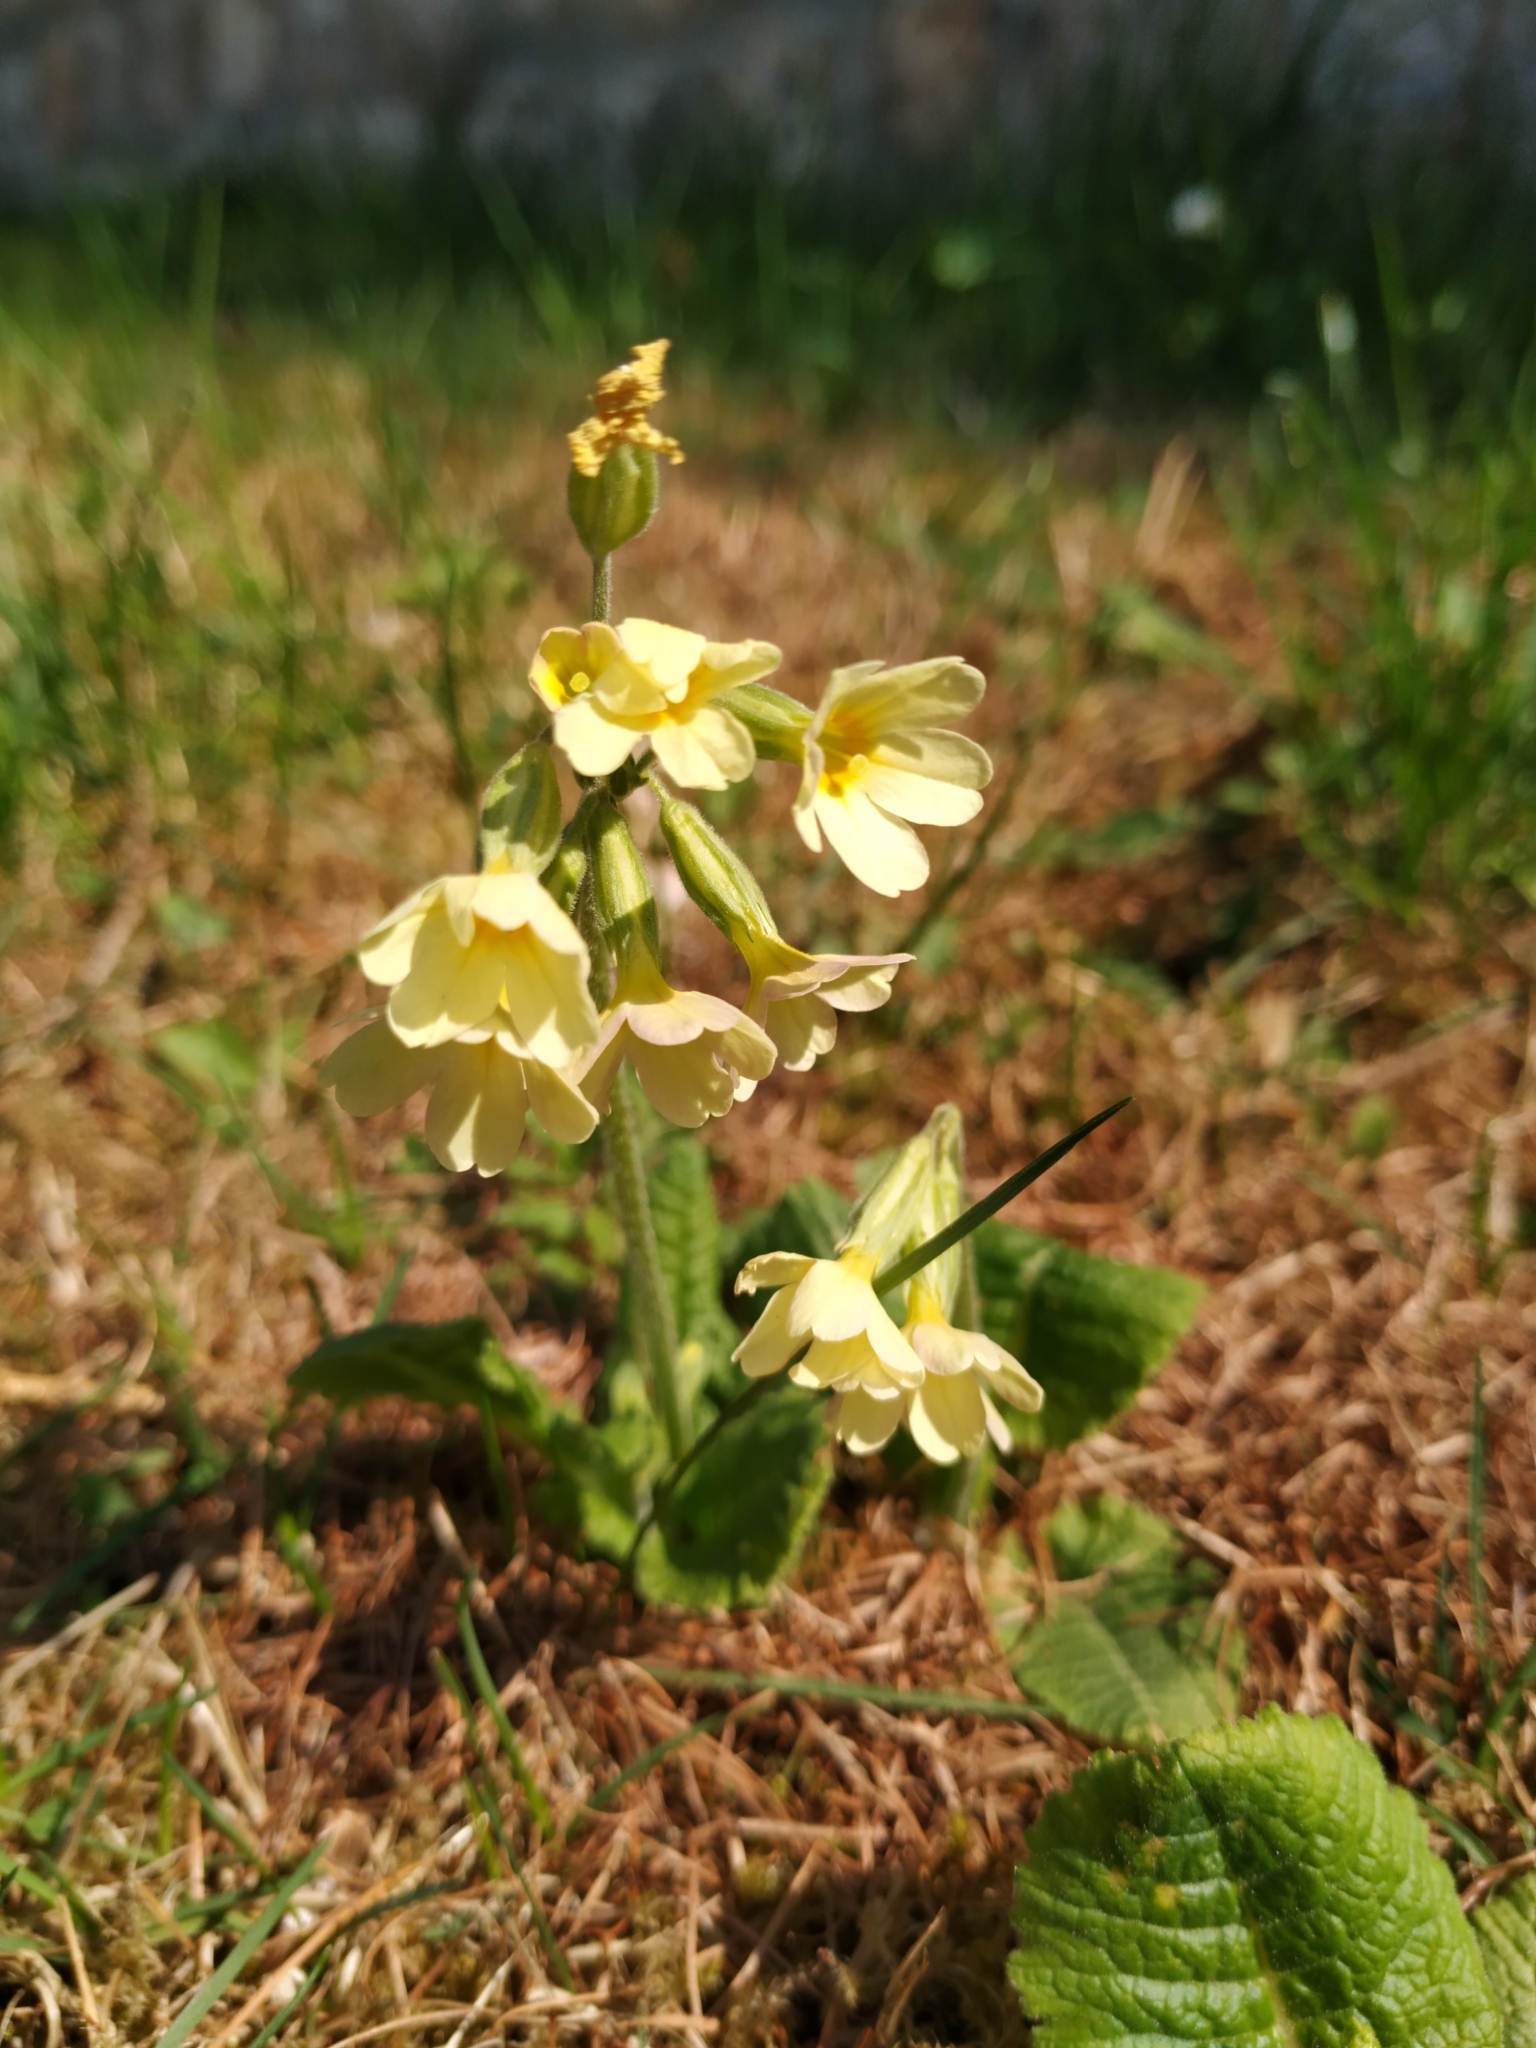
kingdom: Plantae
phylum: Tracheophyta
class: Magnoliopsida
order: Ericales
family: Primulaceae
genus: Primula
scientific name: Primula elatior
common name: Oxlip
